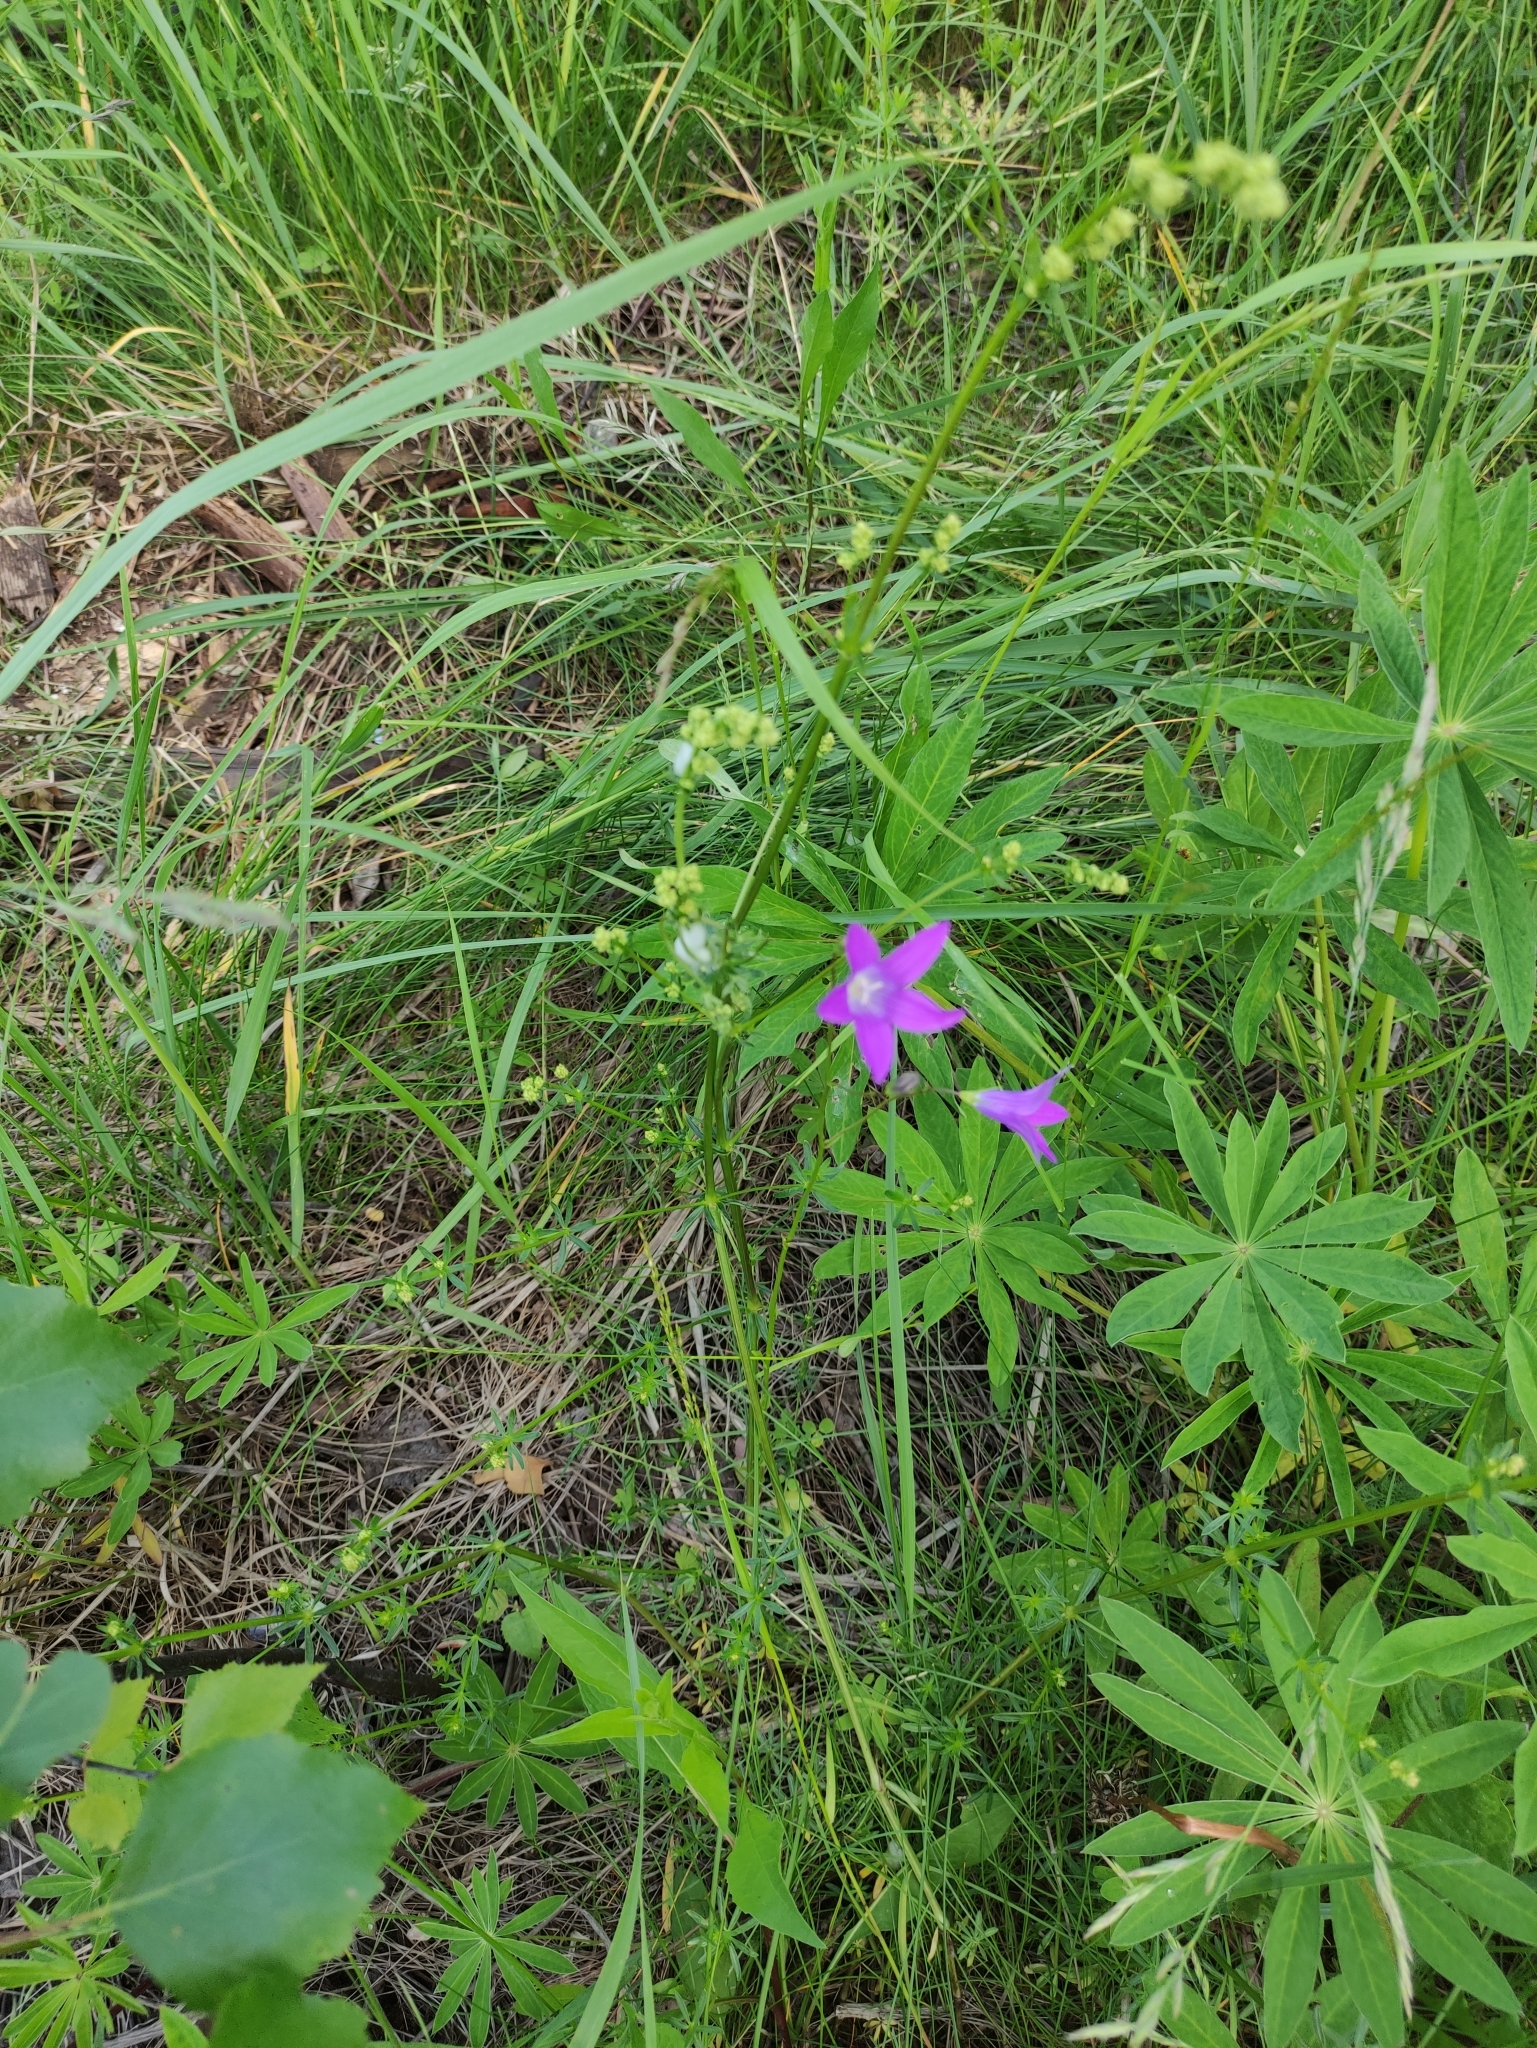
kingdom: Plantae
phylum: Tracheophyta
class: Magnoliopsida
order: Asterales
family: Campanulaceae
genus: Campanula
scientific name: Campanula patula
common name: Spreading bellflower
